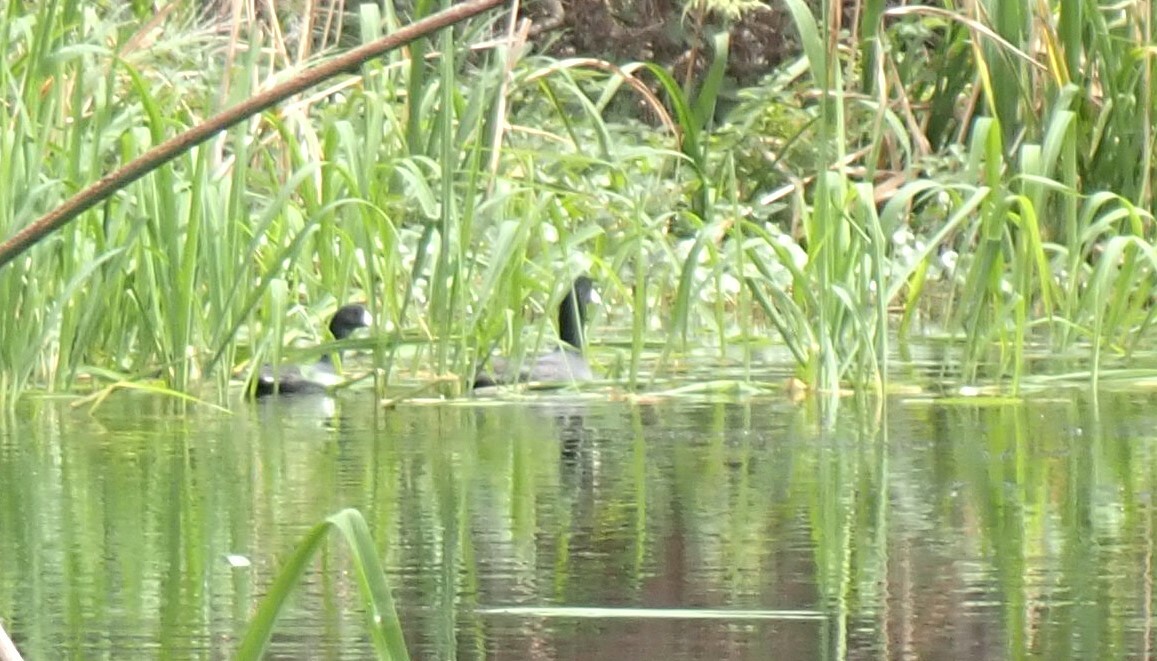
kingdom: Animalia
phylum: Chordata
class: Aves
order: Gruiformes
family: Rallidae
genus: Fulica
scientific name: Fulica americana
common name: American coot
